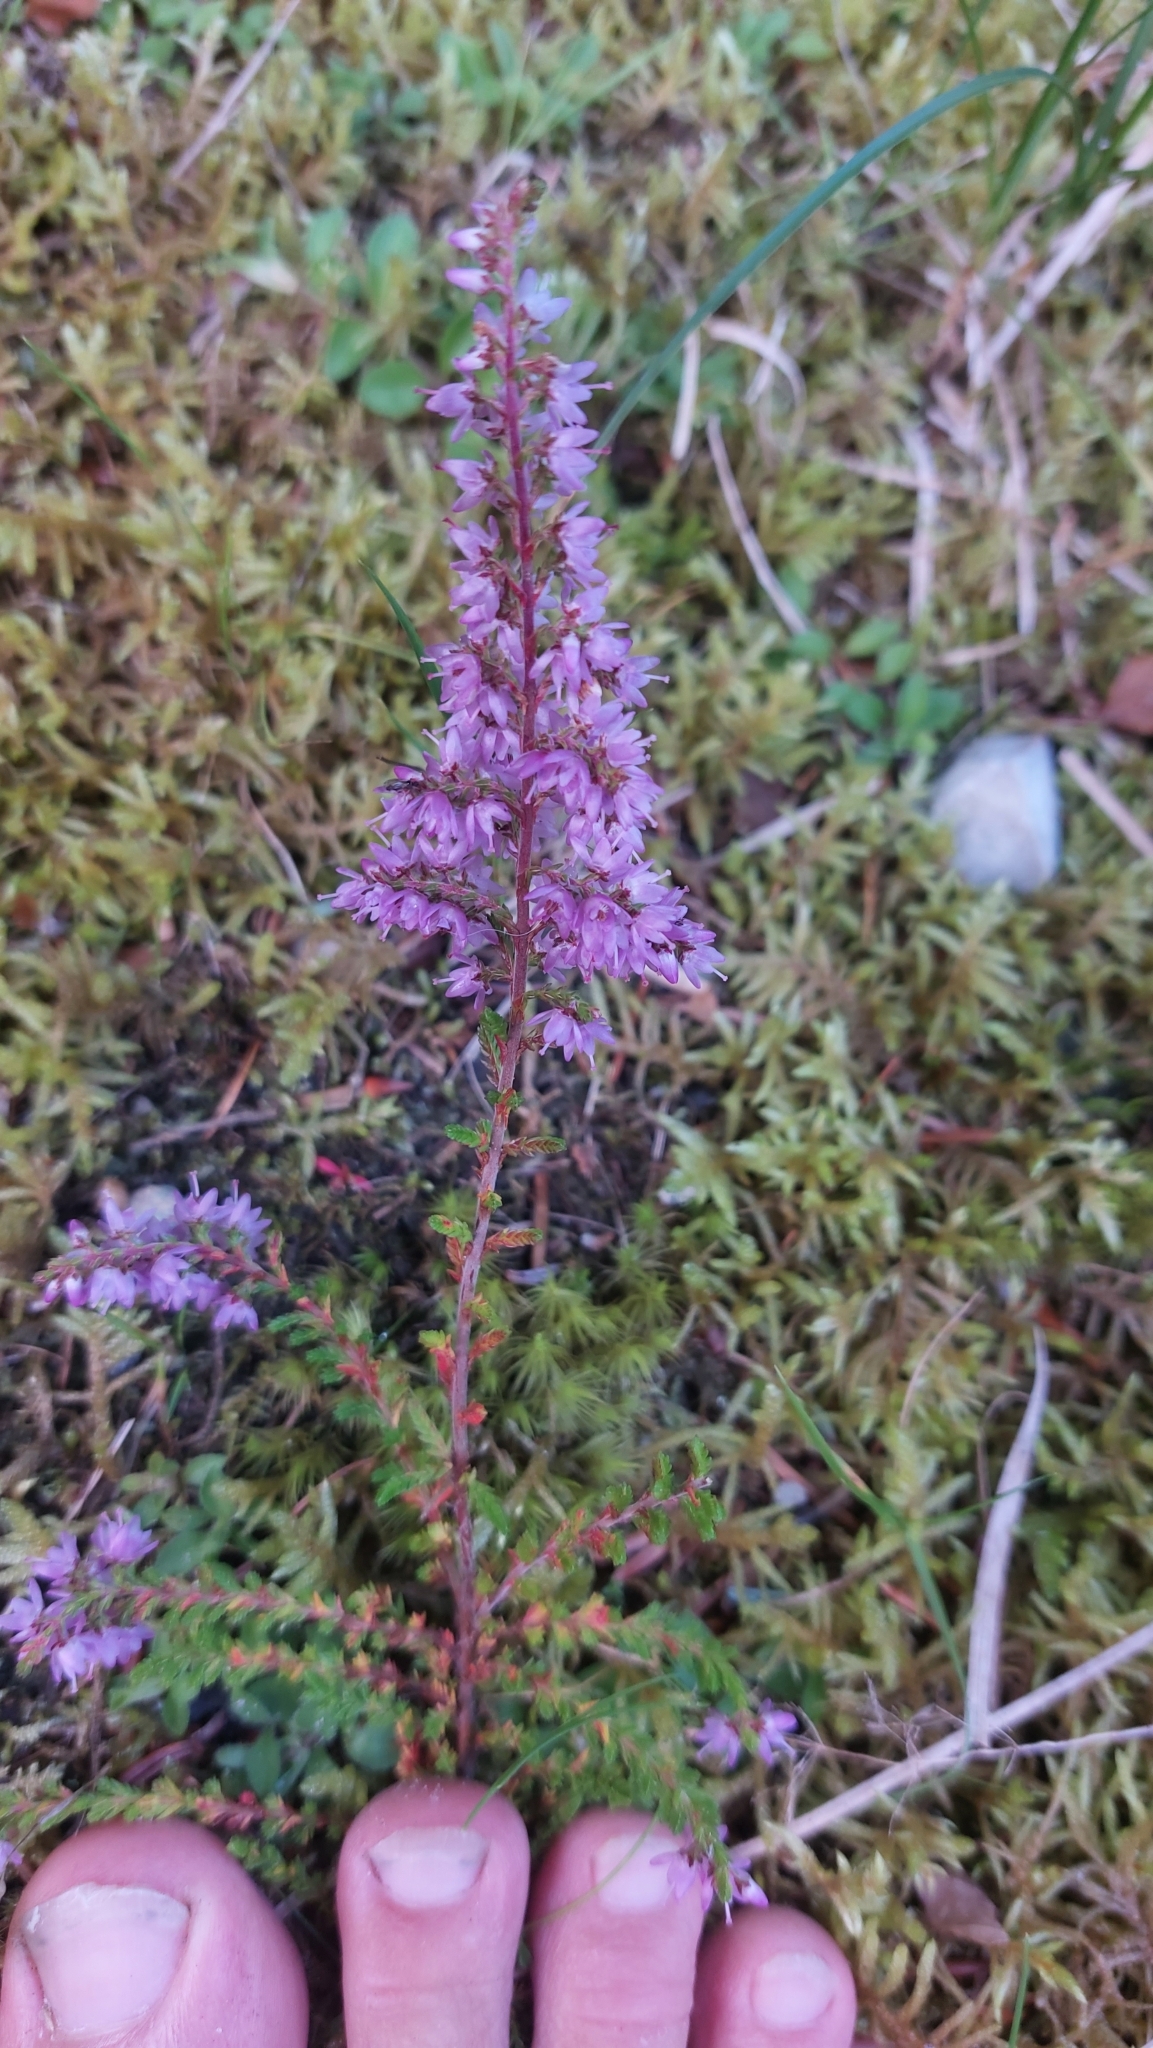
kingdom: Plantae
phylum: Tracheophyta
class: Magnoliopsida
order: Ericales
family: Ericaceae
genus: Calluna
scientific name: Calluna vulgaris
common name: Heather
